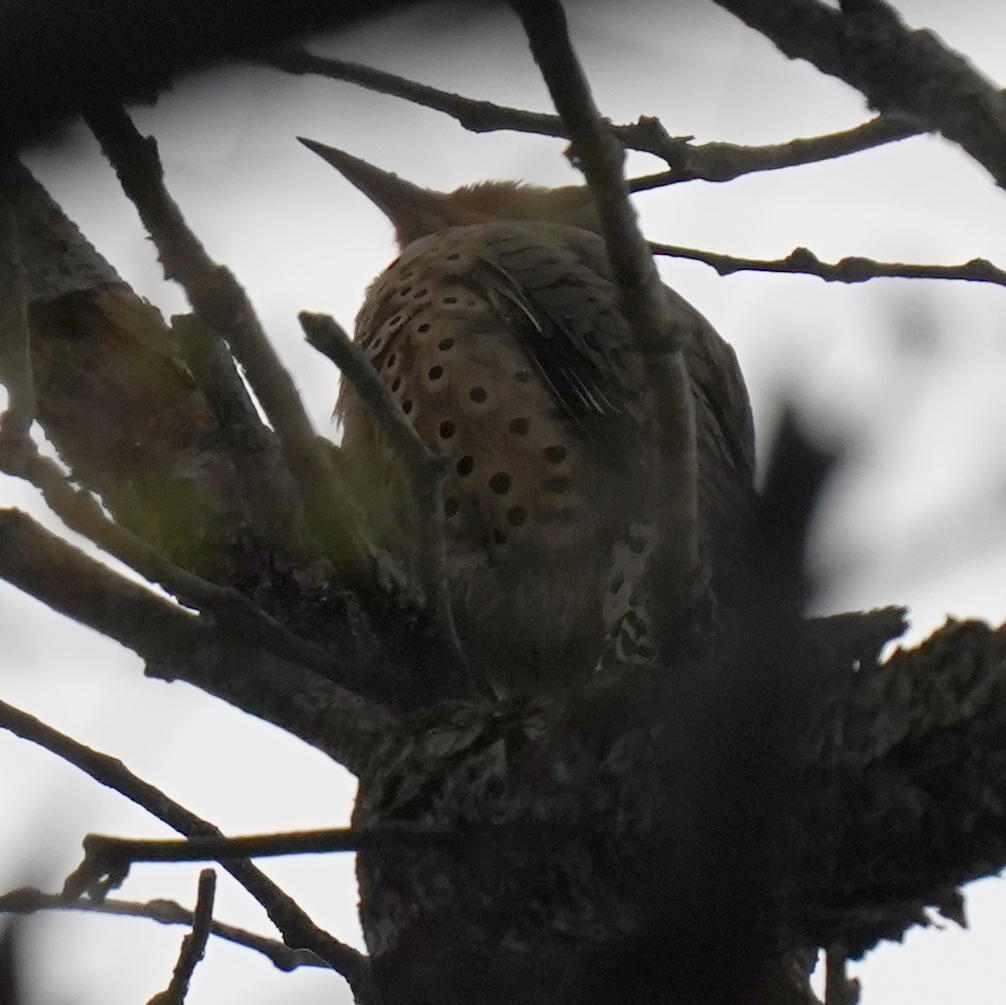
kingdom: Animalia
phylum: Chordata
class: Aves
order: Piciformes
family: Picidae
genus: Colaptes
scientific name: Colaptes auratus
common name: Northern flicker
